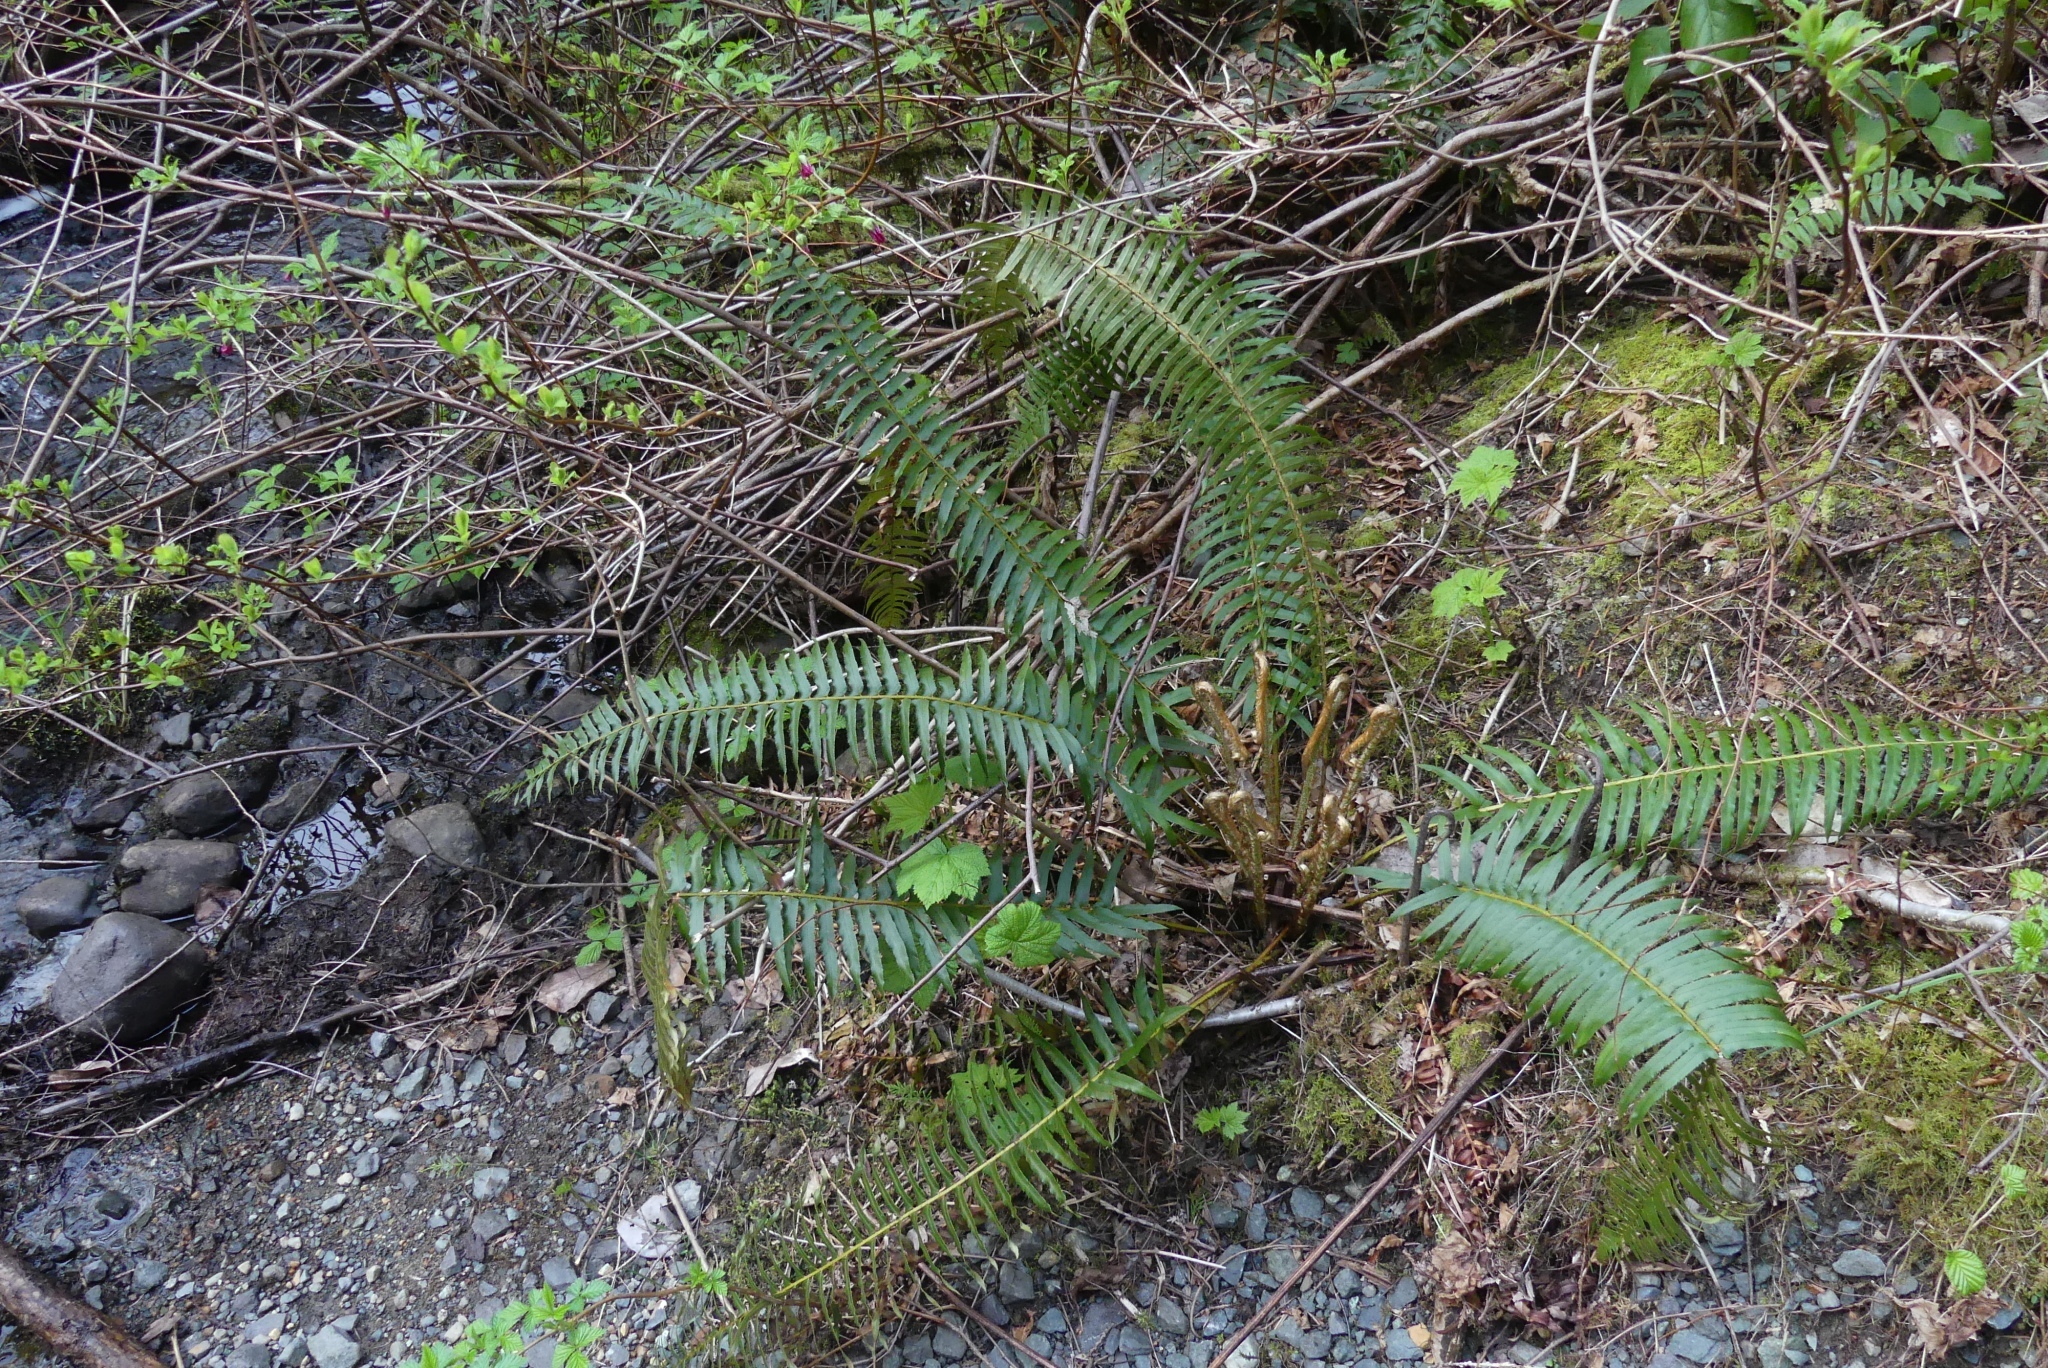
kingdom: Plantae
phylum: Tracheophyta
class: Polypodiopsida
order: Polypodiales
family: Dryopteridaceae
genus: Polystichum
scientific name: Polystichum munitum
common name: Western sword-fern
